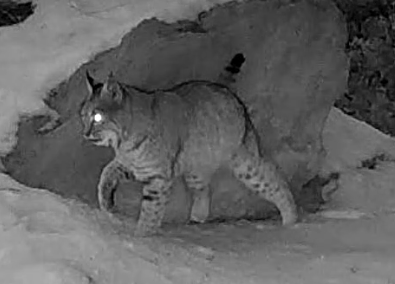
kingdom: Animalia
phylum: Chordata
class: Mammalia
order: Carnivora
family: Felidae
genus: Lynx
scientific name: Lynx rufus
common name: Bobcat
